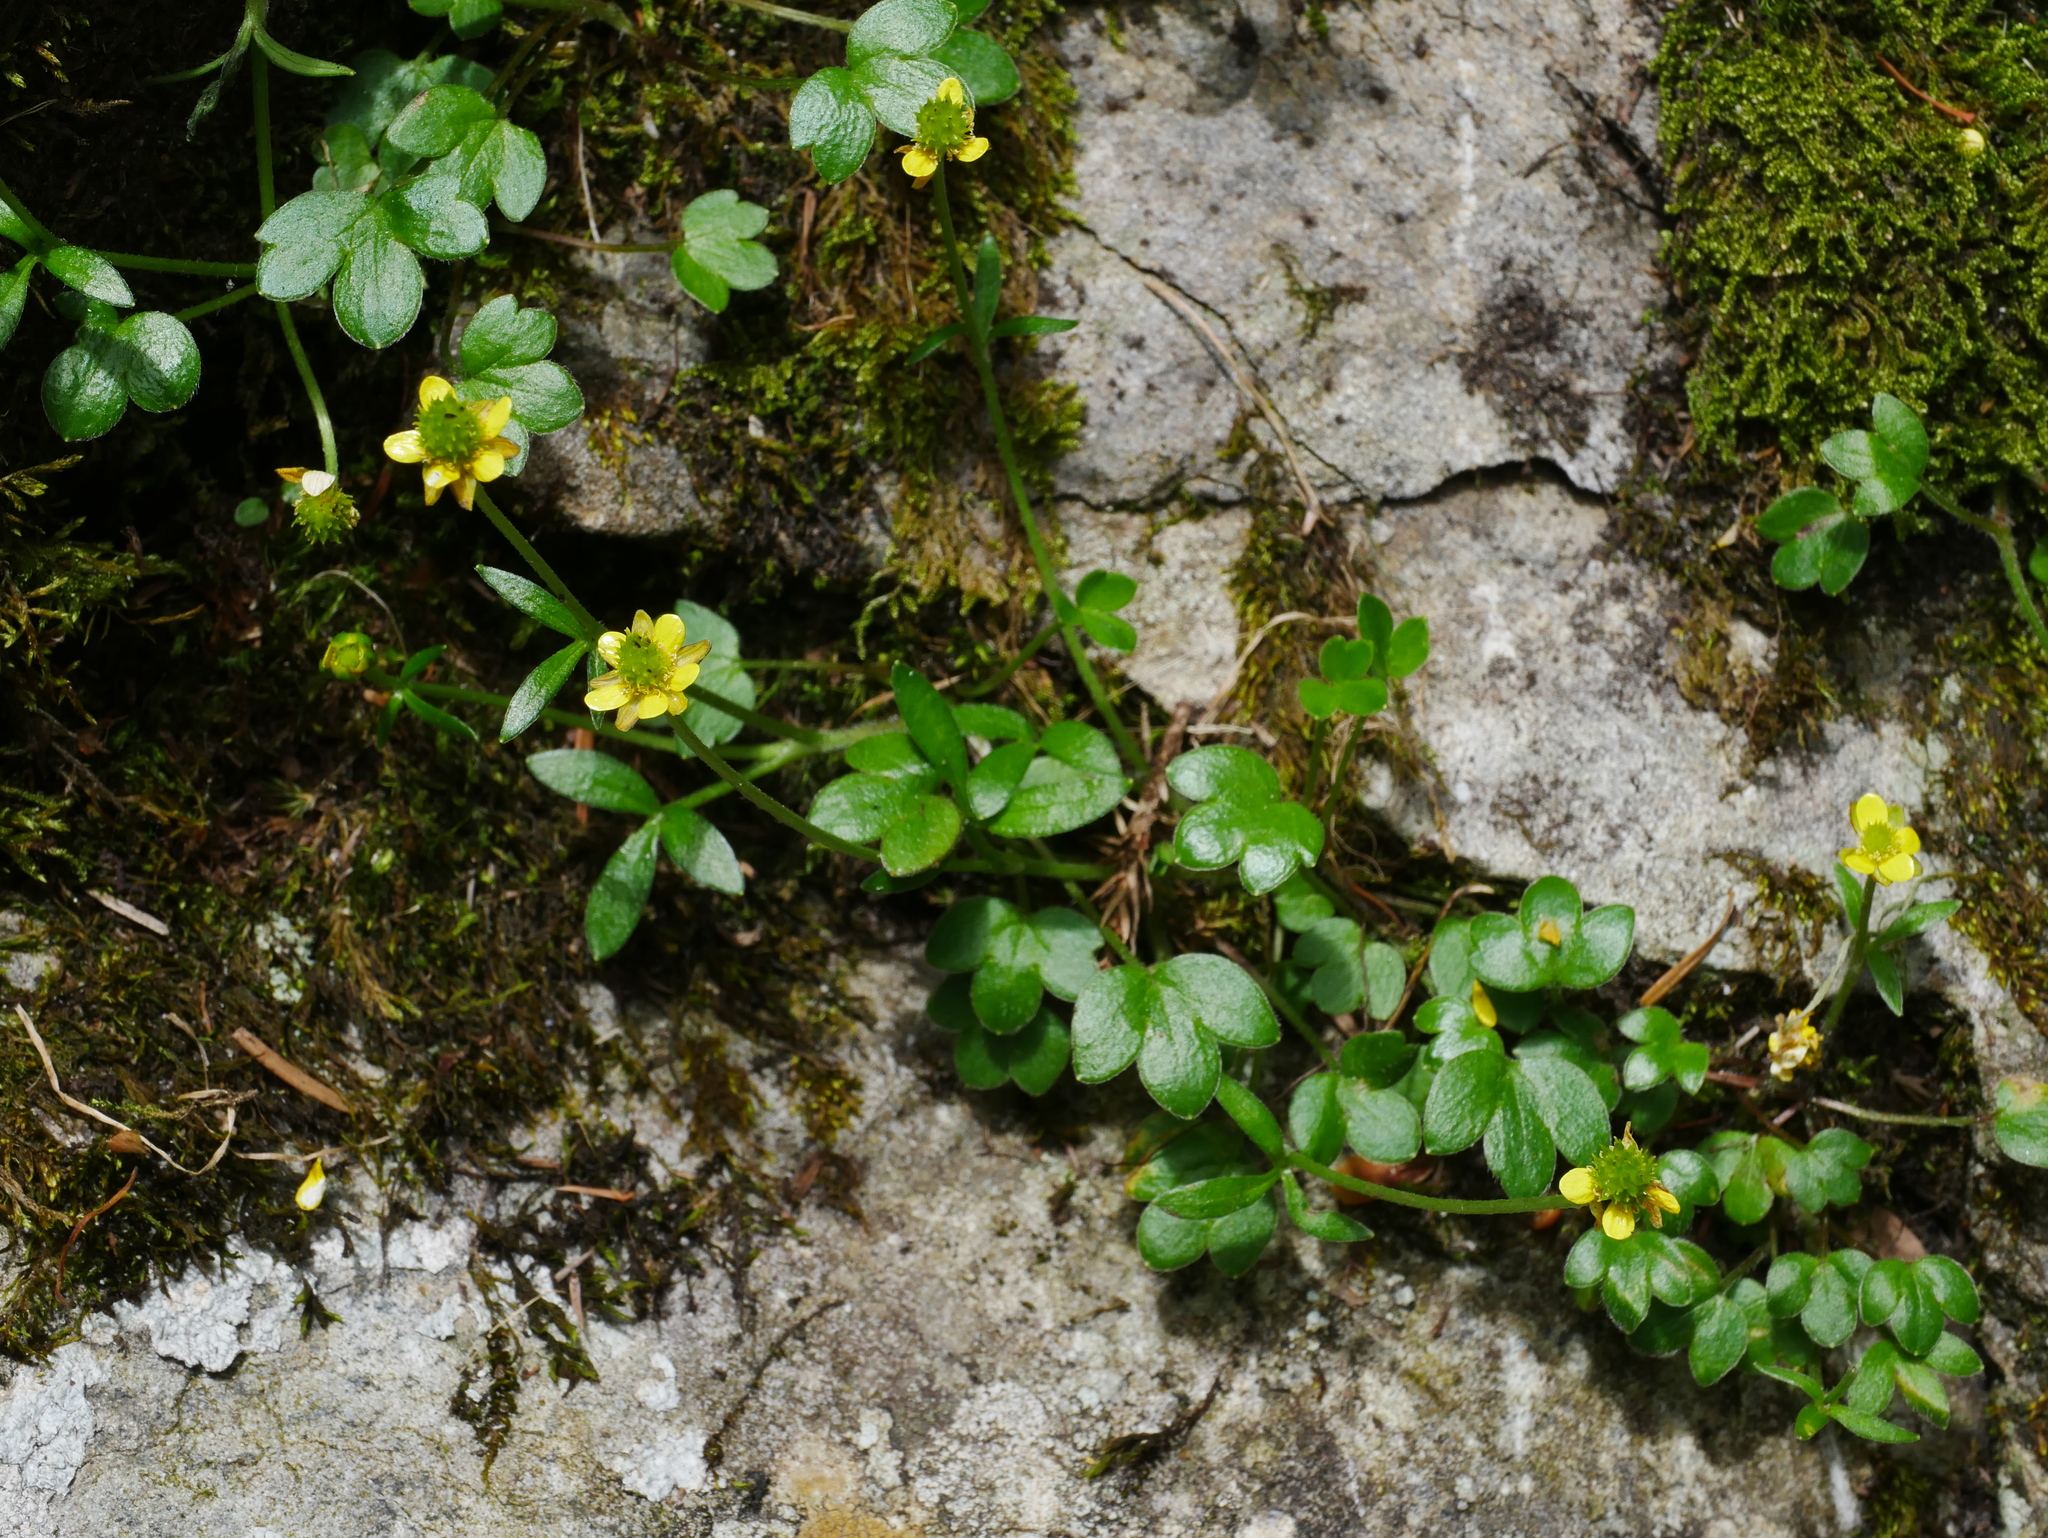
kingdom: Plantae
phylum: Tracheophyta
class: Magnoliopsida
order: Ranunculales
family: Ranunculaceae
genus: Ranunculus
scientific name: Ranunculus junipericola
